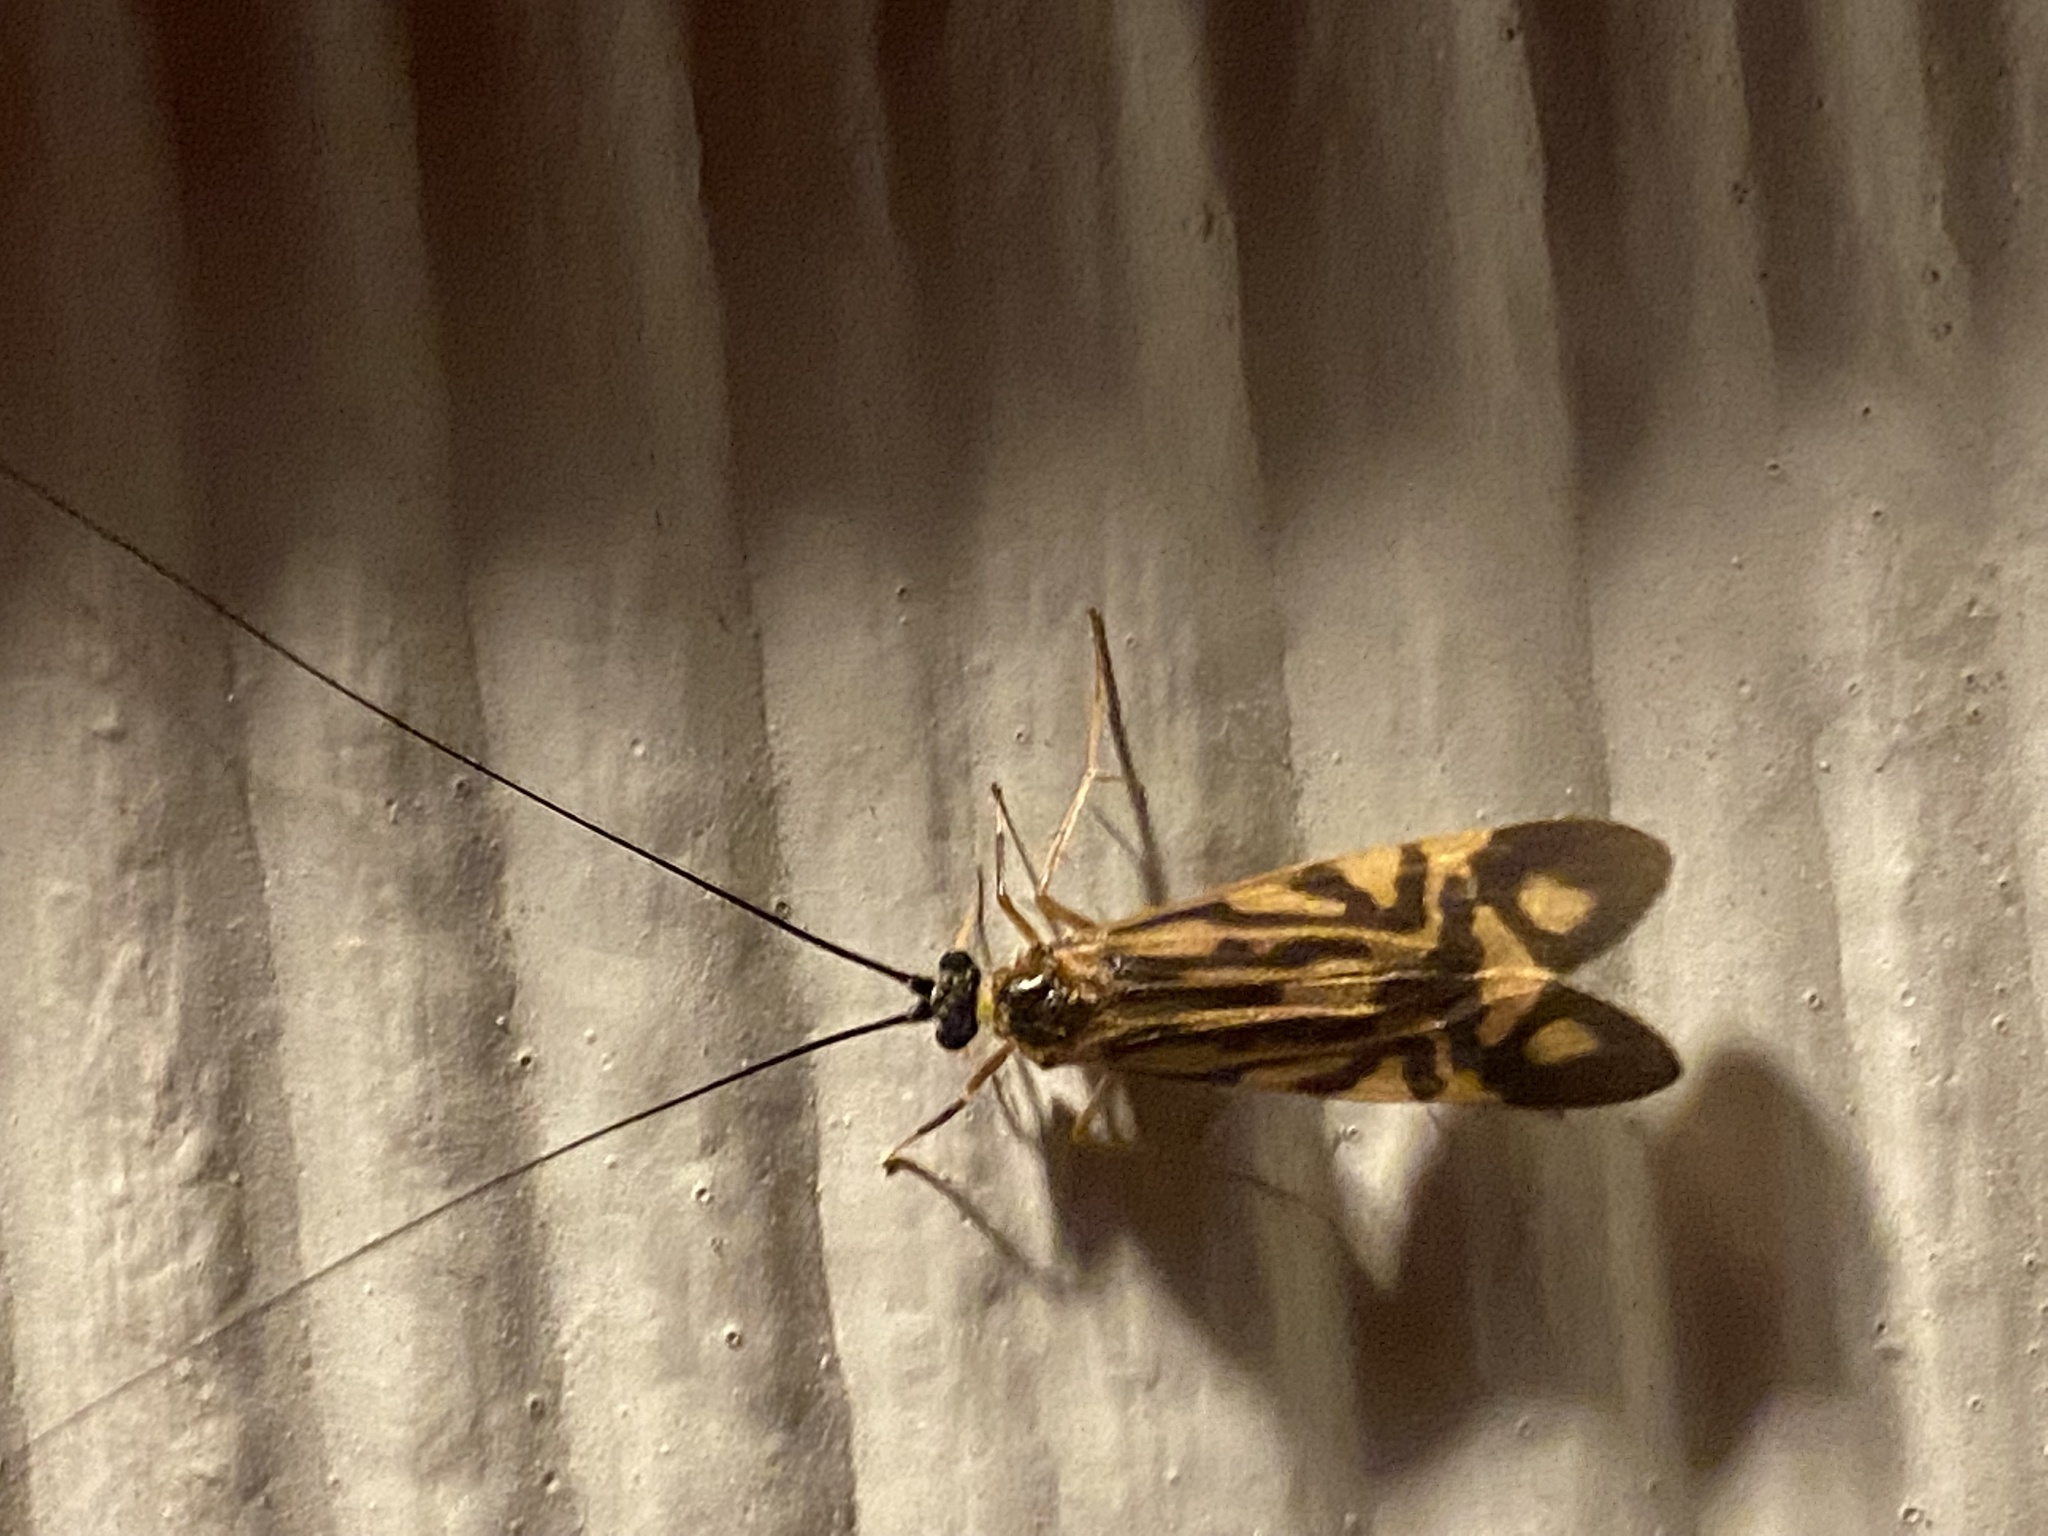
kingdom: Animalia
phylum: Arthropoda
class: Insecta
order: Trichoptera
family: Hydropsychidae
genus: Macrostemum
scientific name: Macrostemum zebratum
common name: Zebra caddisfly
